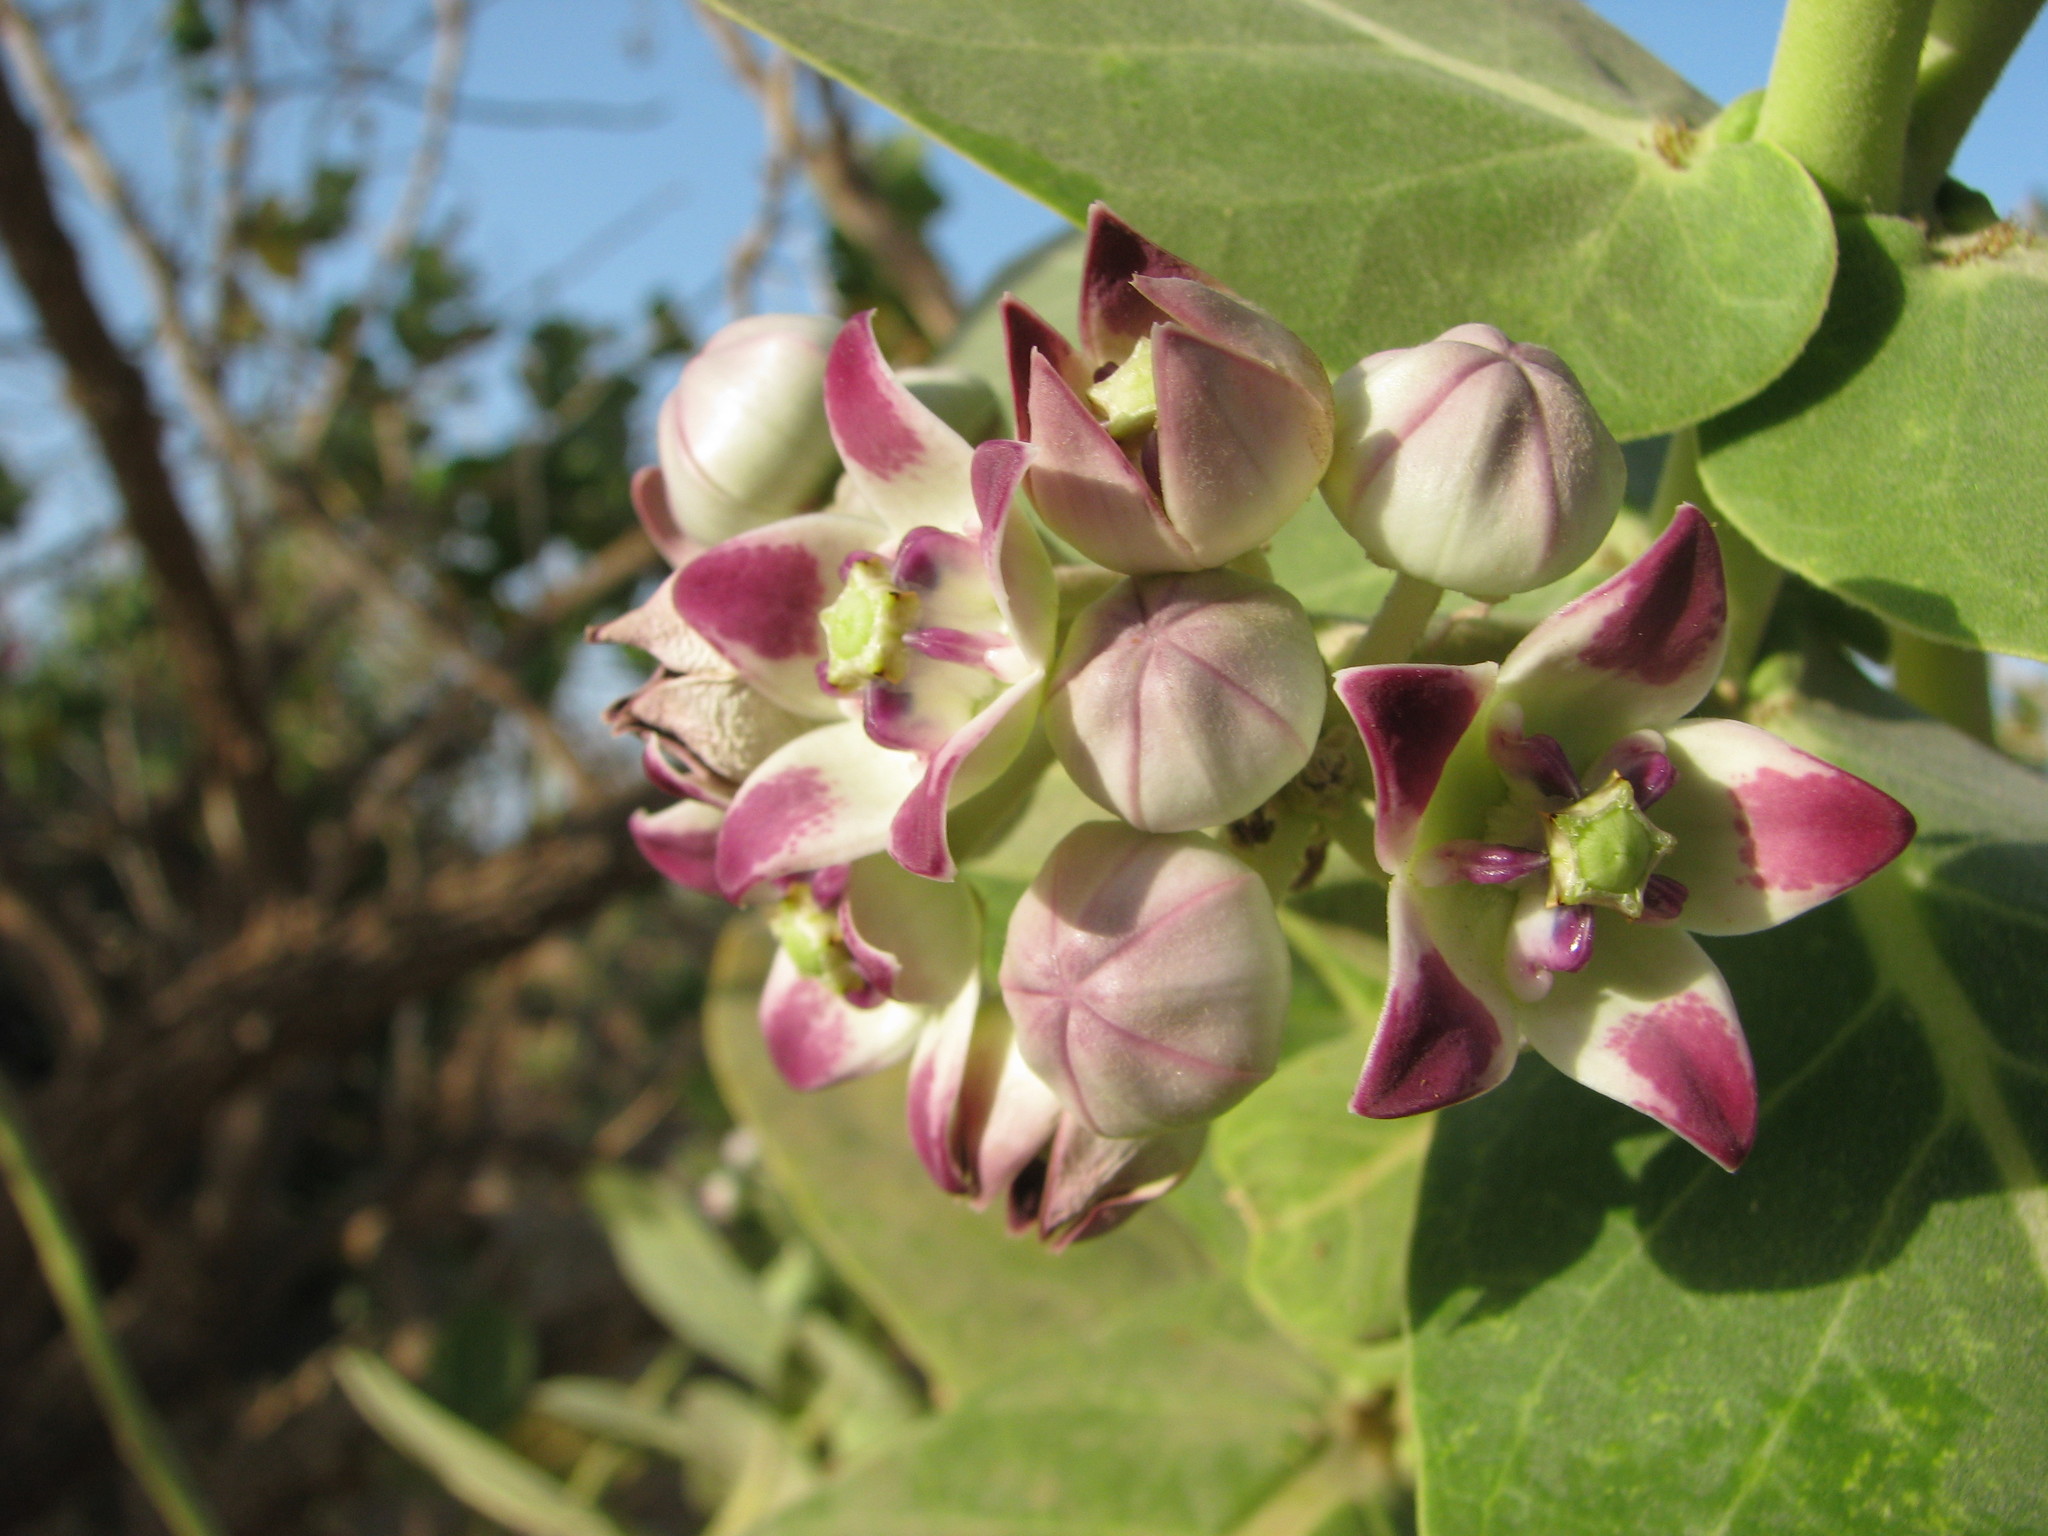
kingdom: Plantae
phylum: Tracheophyta
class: Magnoliopsida
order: Gentianales
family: Apocynaceae
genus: Calotropis
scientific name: Calotropis procera
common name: Roostertree
